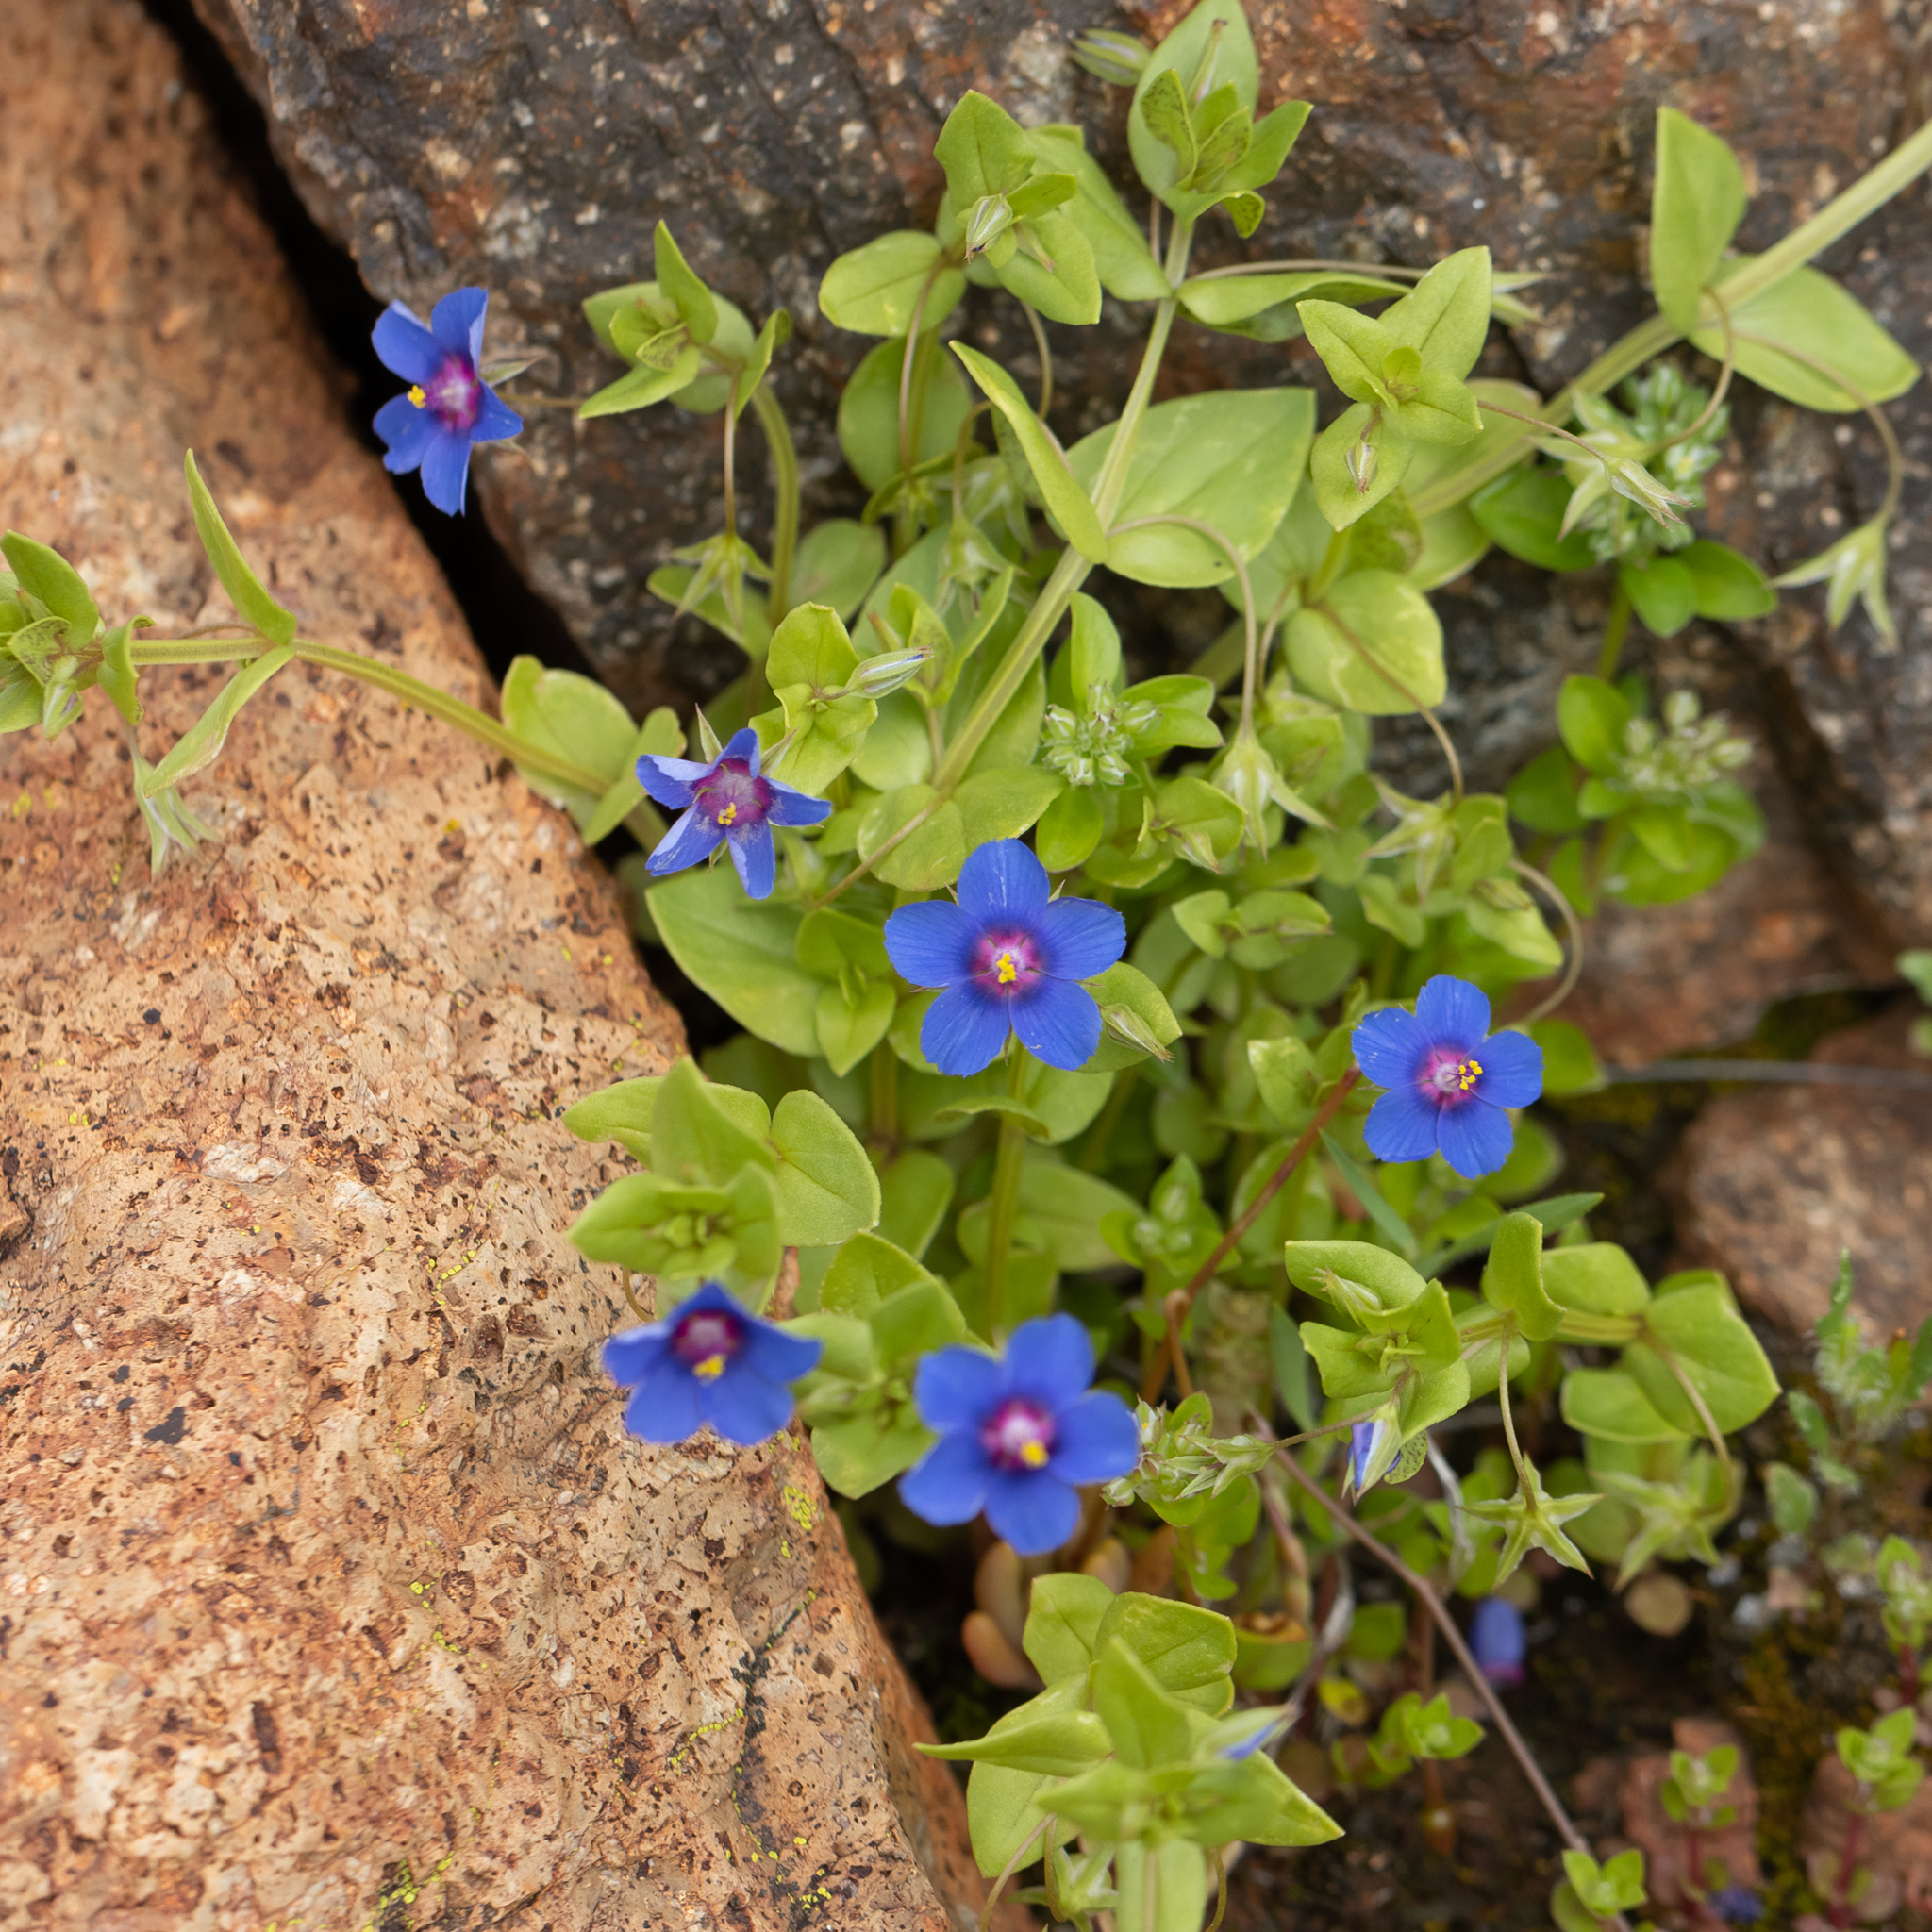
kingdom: Plantae
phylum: Tracheophyta
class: Magnoliopsida
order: Ericales
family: Primulaceae
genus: Lysimachia
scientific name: Lysimachia loeflingii
